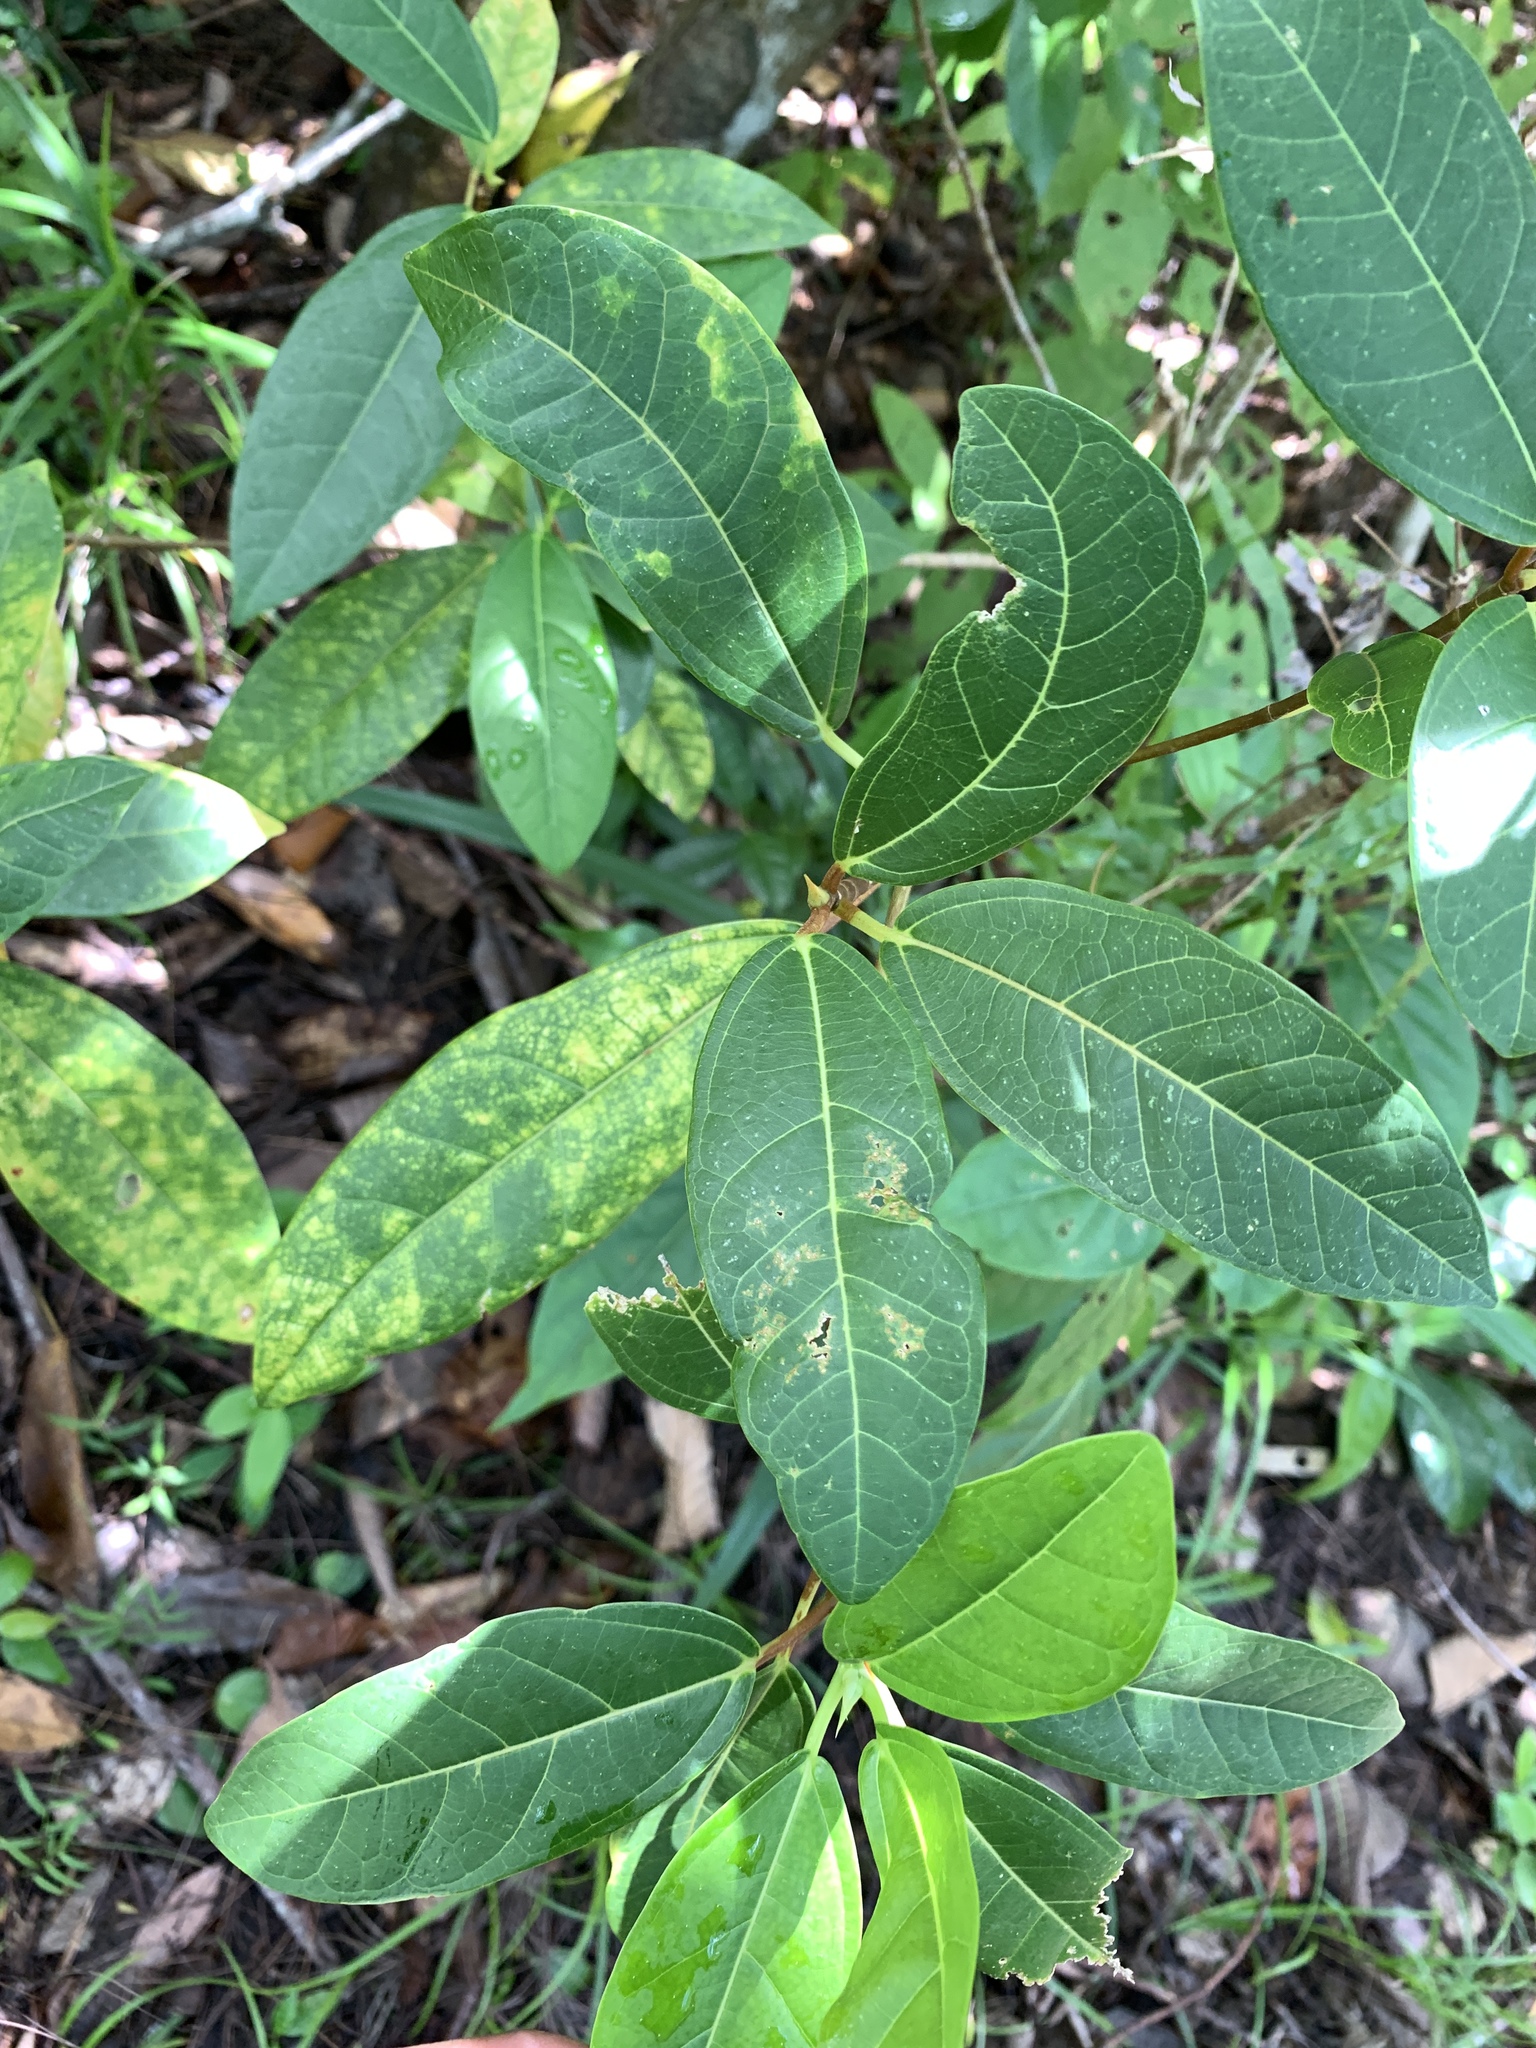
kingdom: Plantae
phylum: Tracheophyta
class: Magnoliopsida
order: Rosales
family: Moraceae
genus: Ficus
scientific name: Ficus pedunculosa
